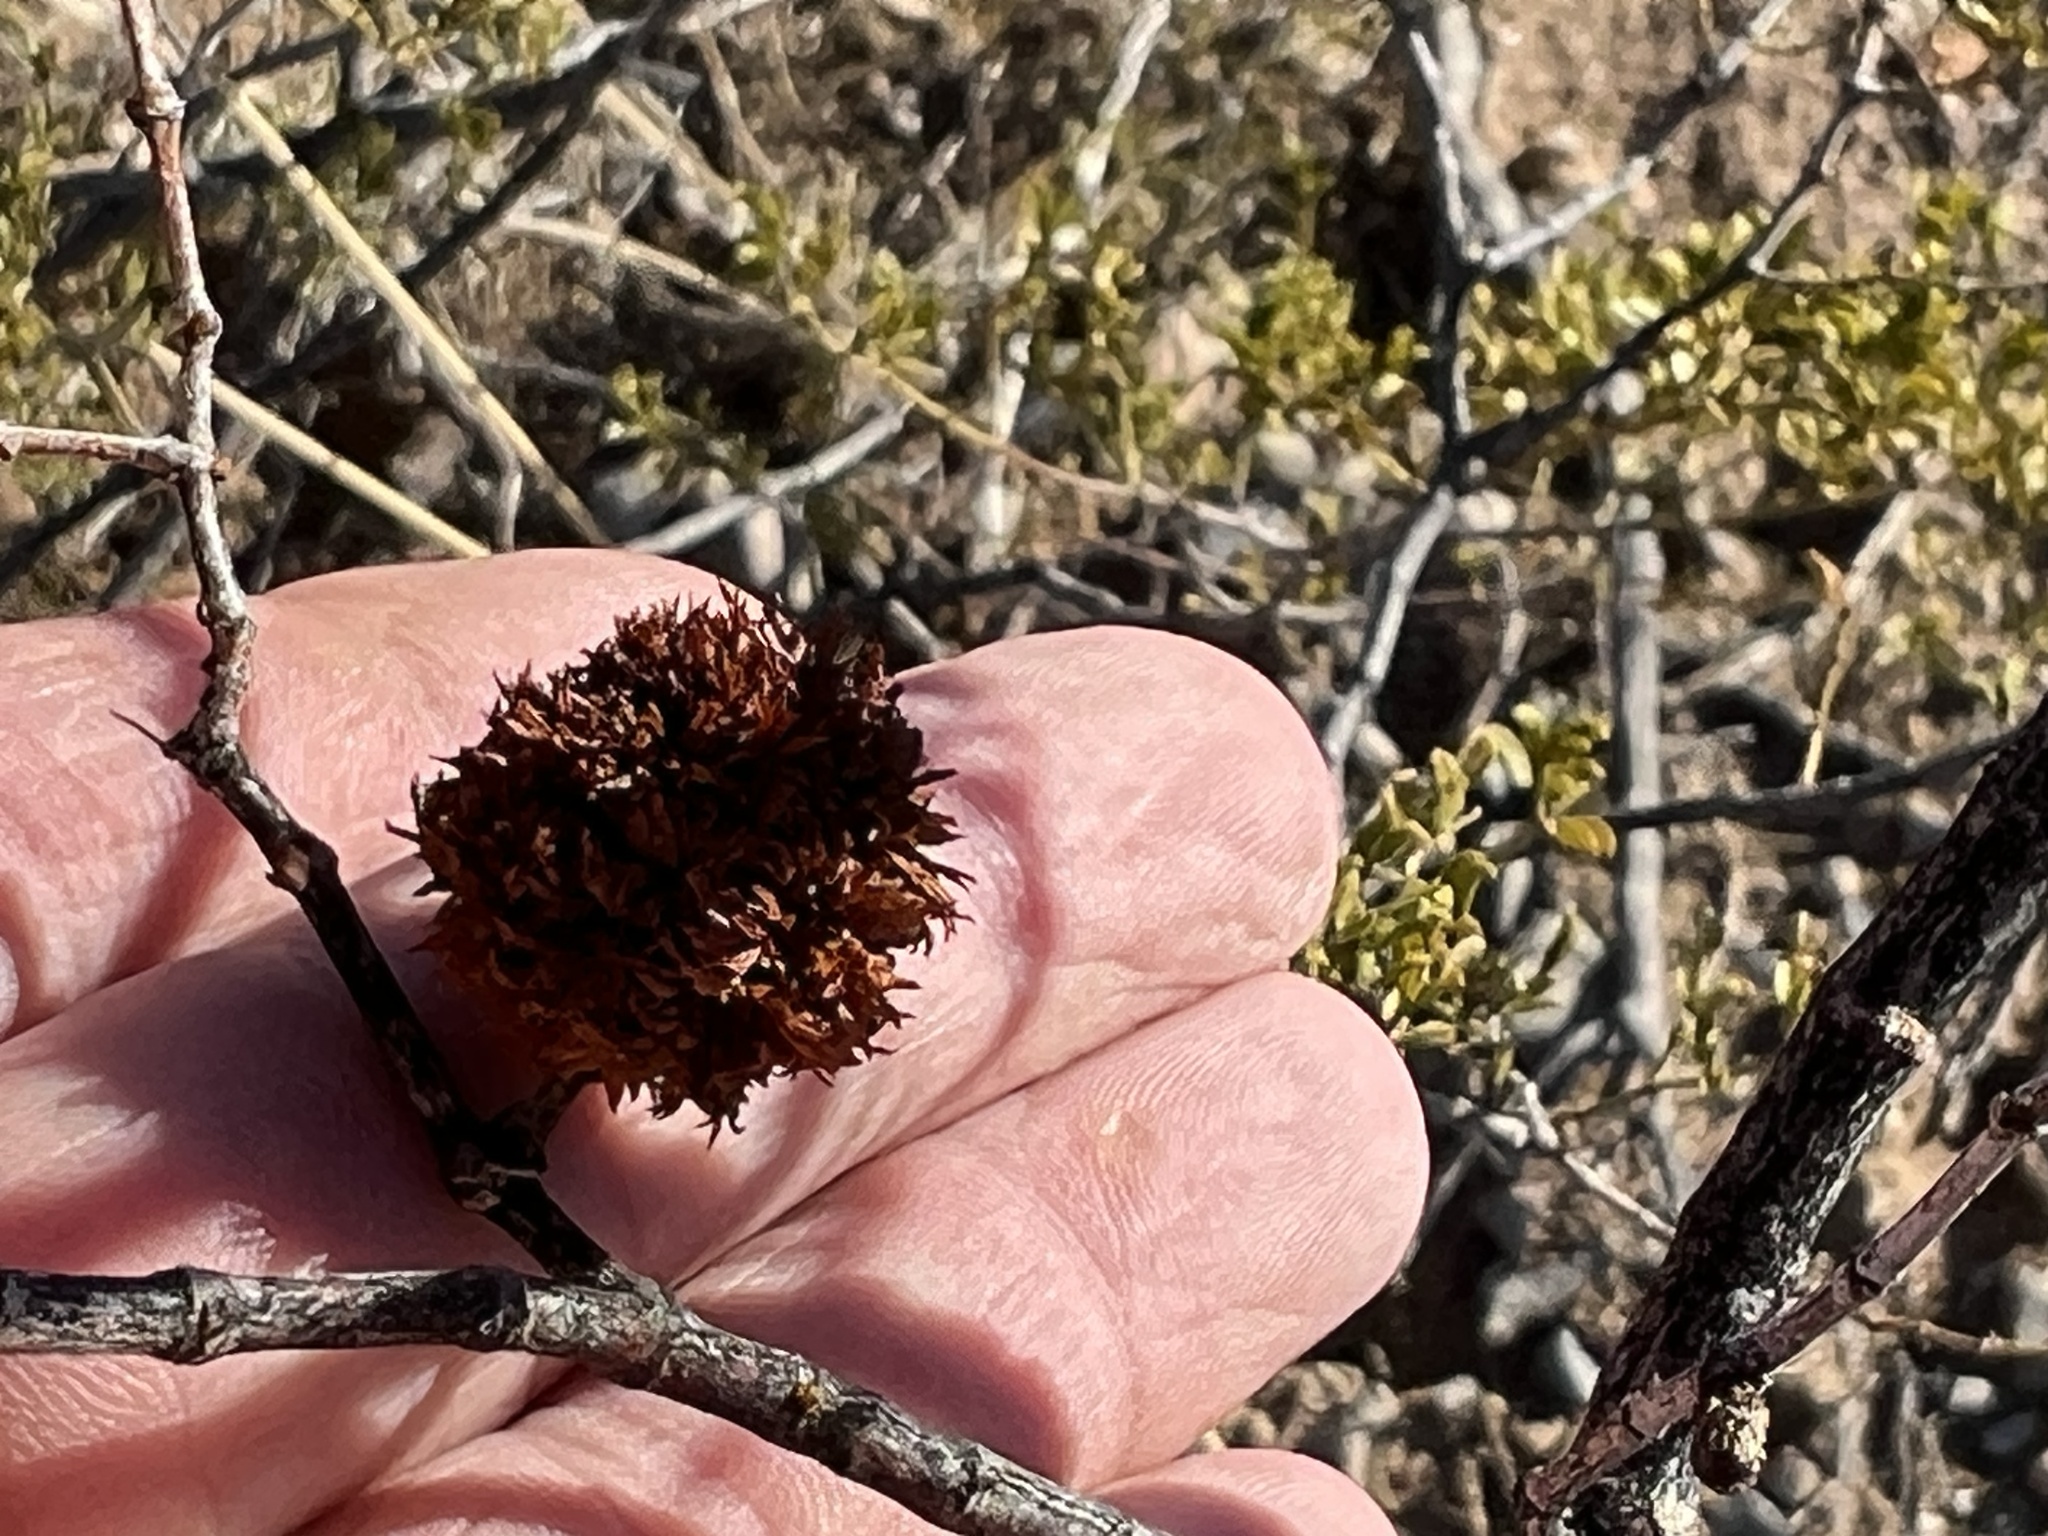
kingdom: Animalia
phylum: Arthropoda
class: Insecta
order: Diptera
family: Cecidomyiidae
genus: Asphondylia
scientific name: Asphondylia auripila
